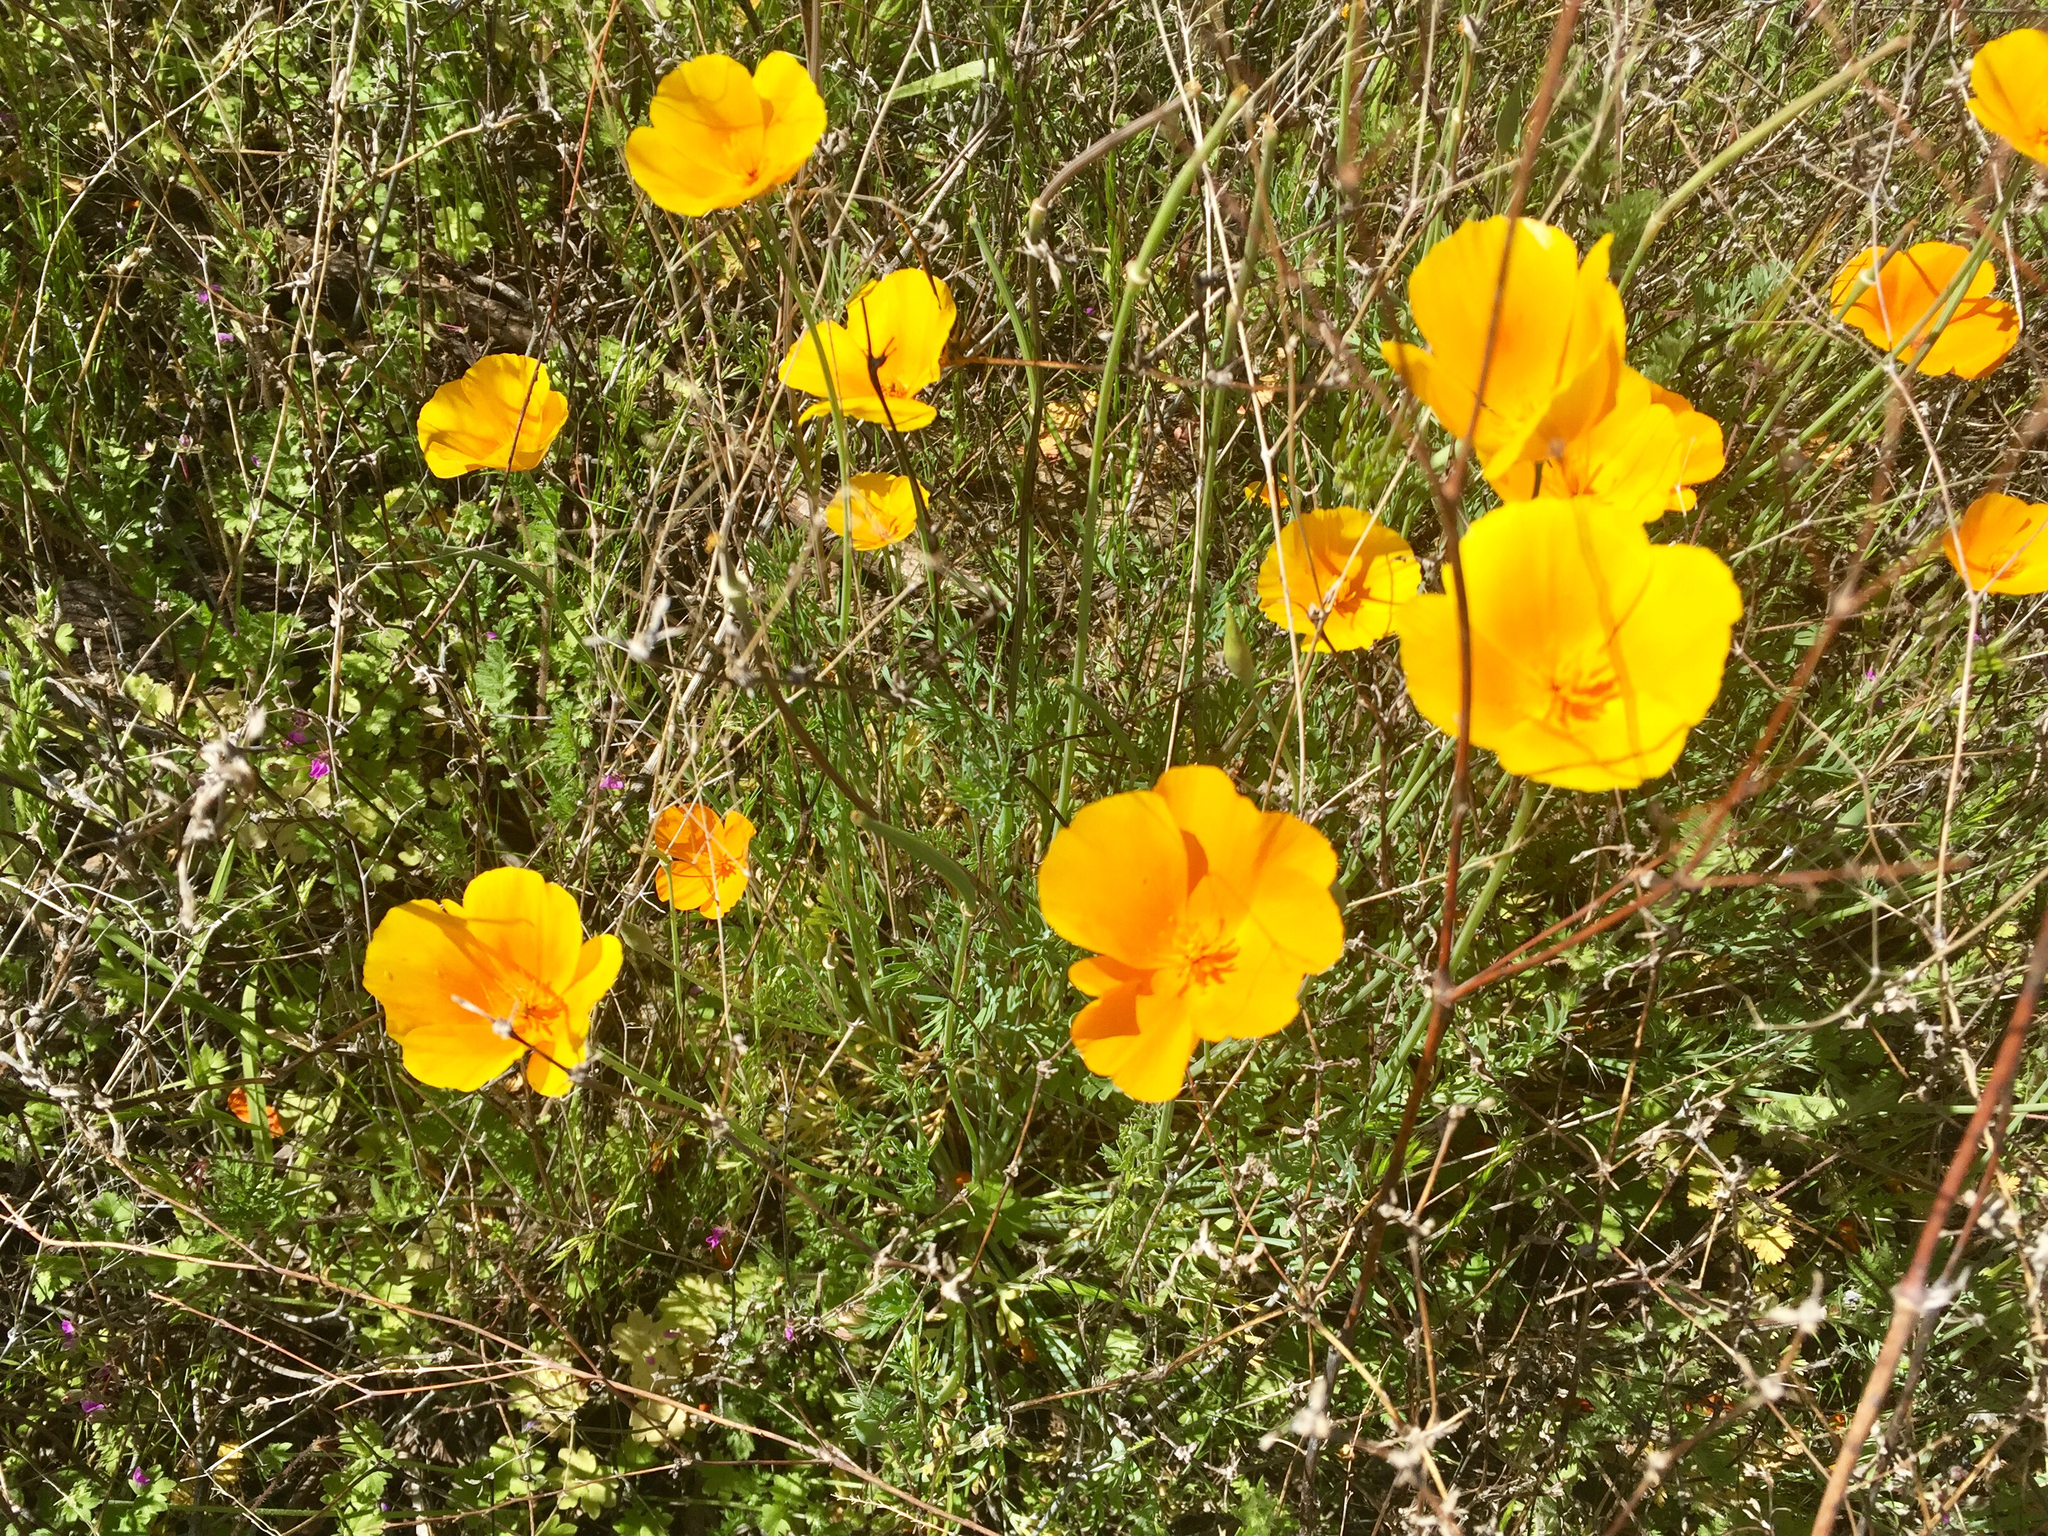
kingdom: Plantae
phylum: Tracheophyta
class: Magnoliopsida
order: Ranunculales
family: Papaveraceae
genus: Eschscholzia
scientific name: Eschscholzia californica
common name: California poppy
